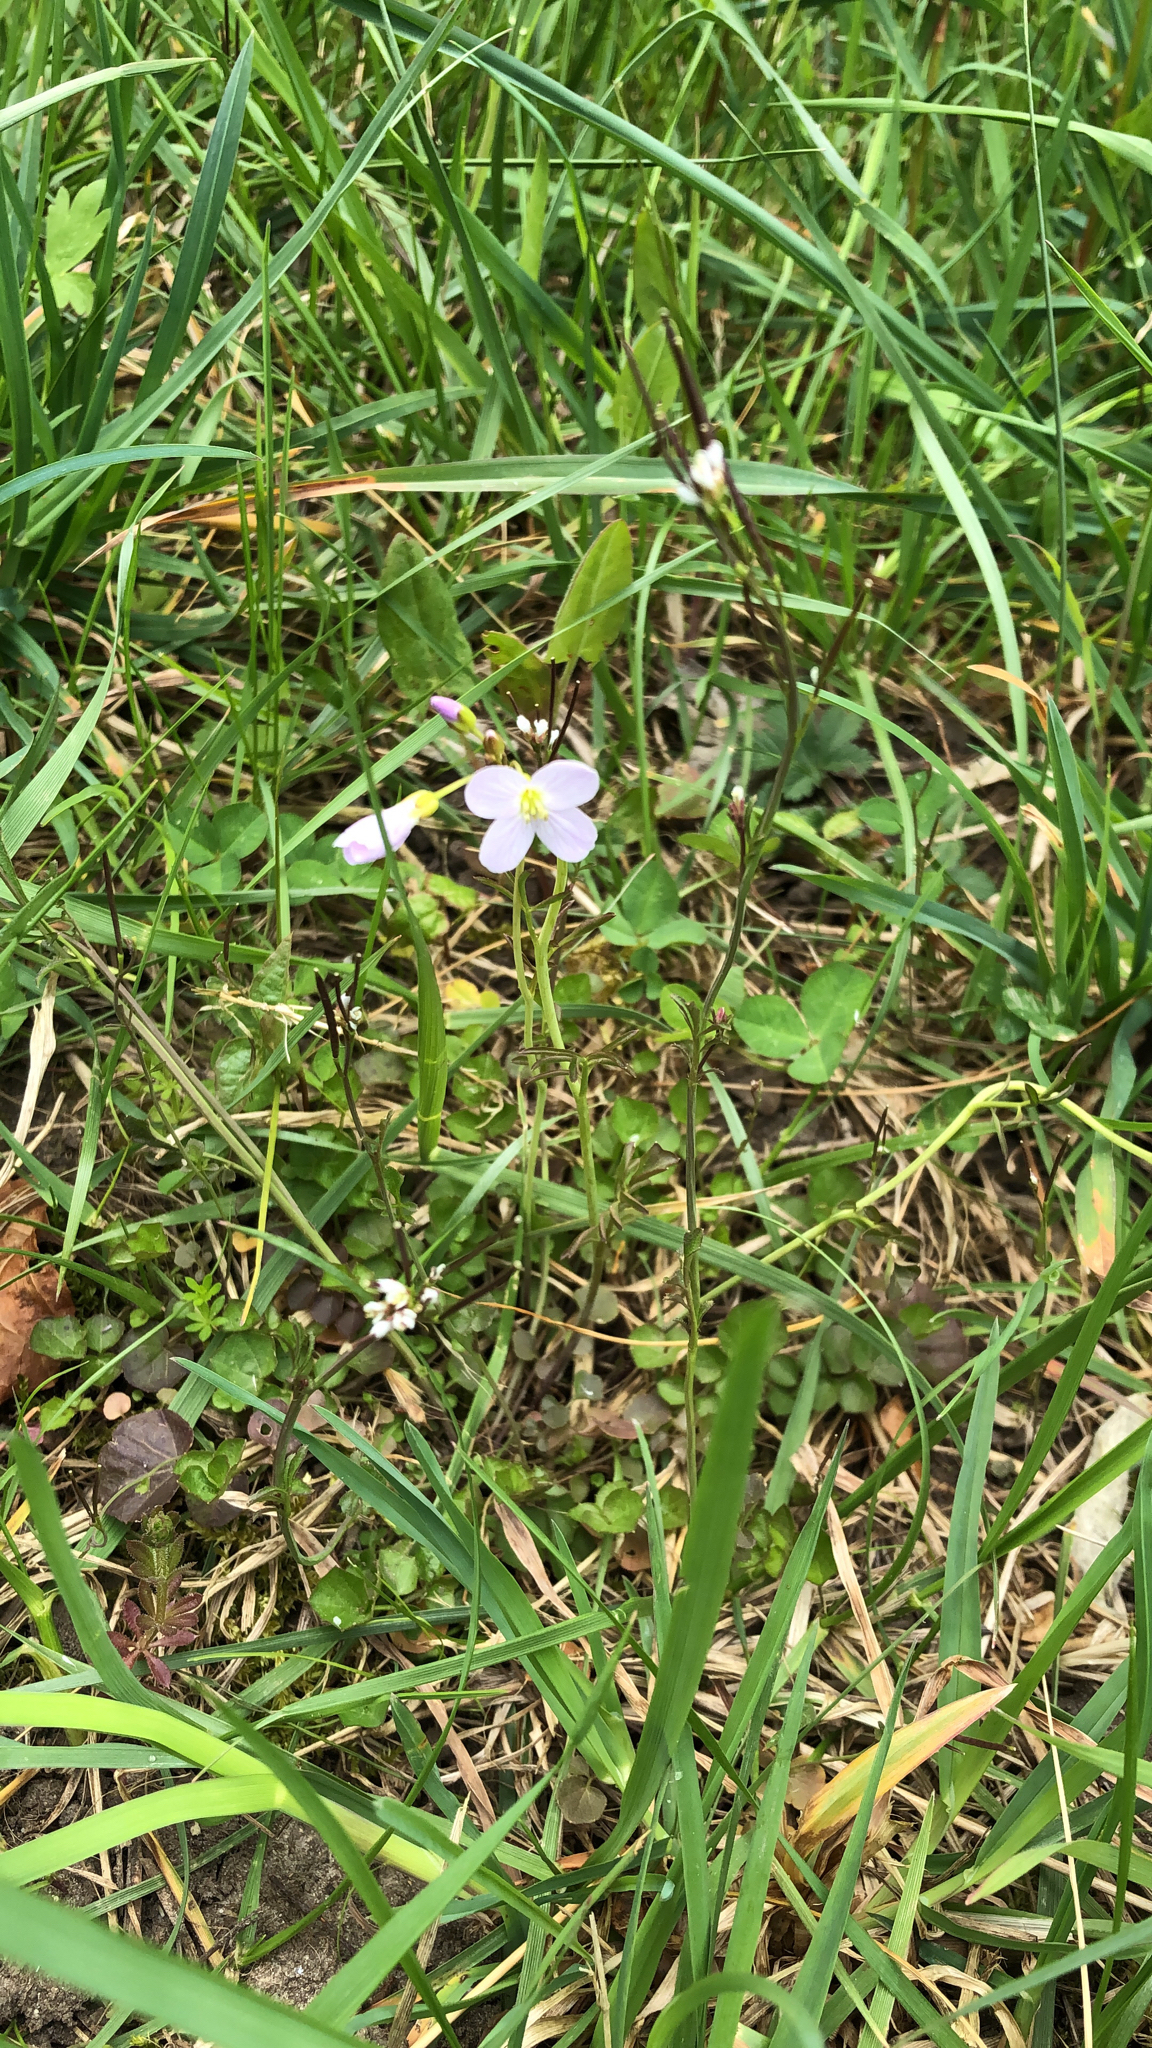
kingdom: Plantae
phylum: Tracheophyta
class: Magnoliopsida
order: Brassicales
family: Brassicaceae
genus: Cardamine
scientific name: Cardamine pratensis
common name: Cuckoo flower
